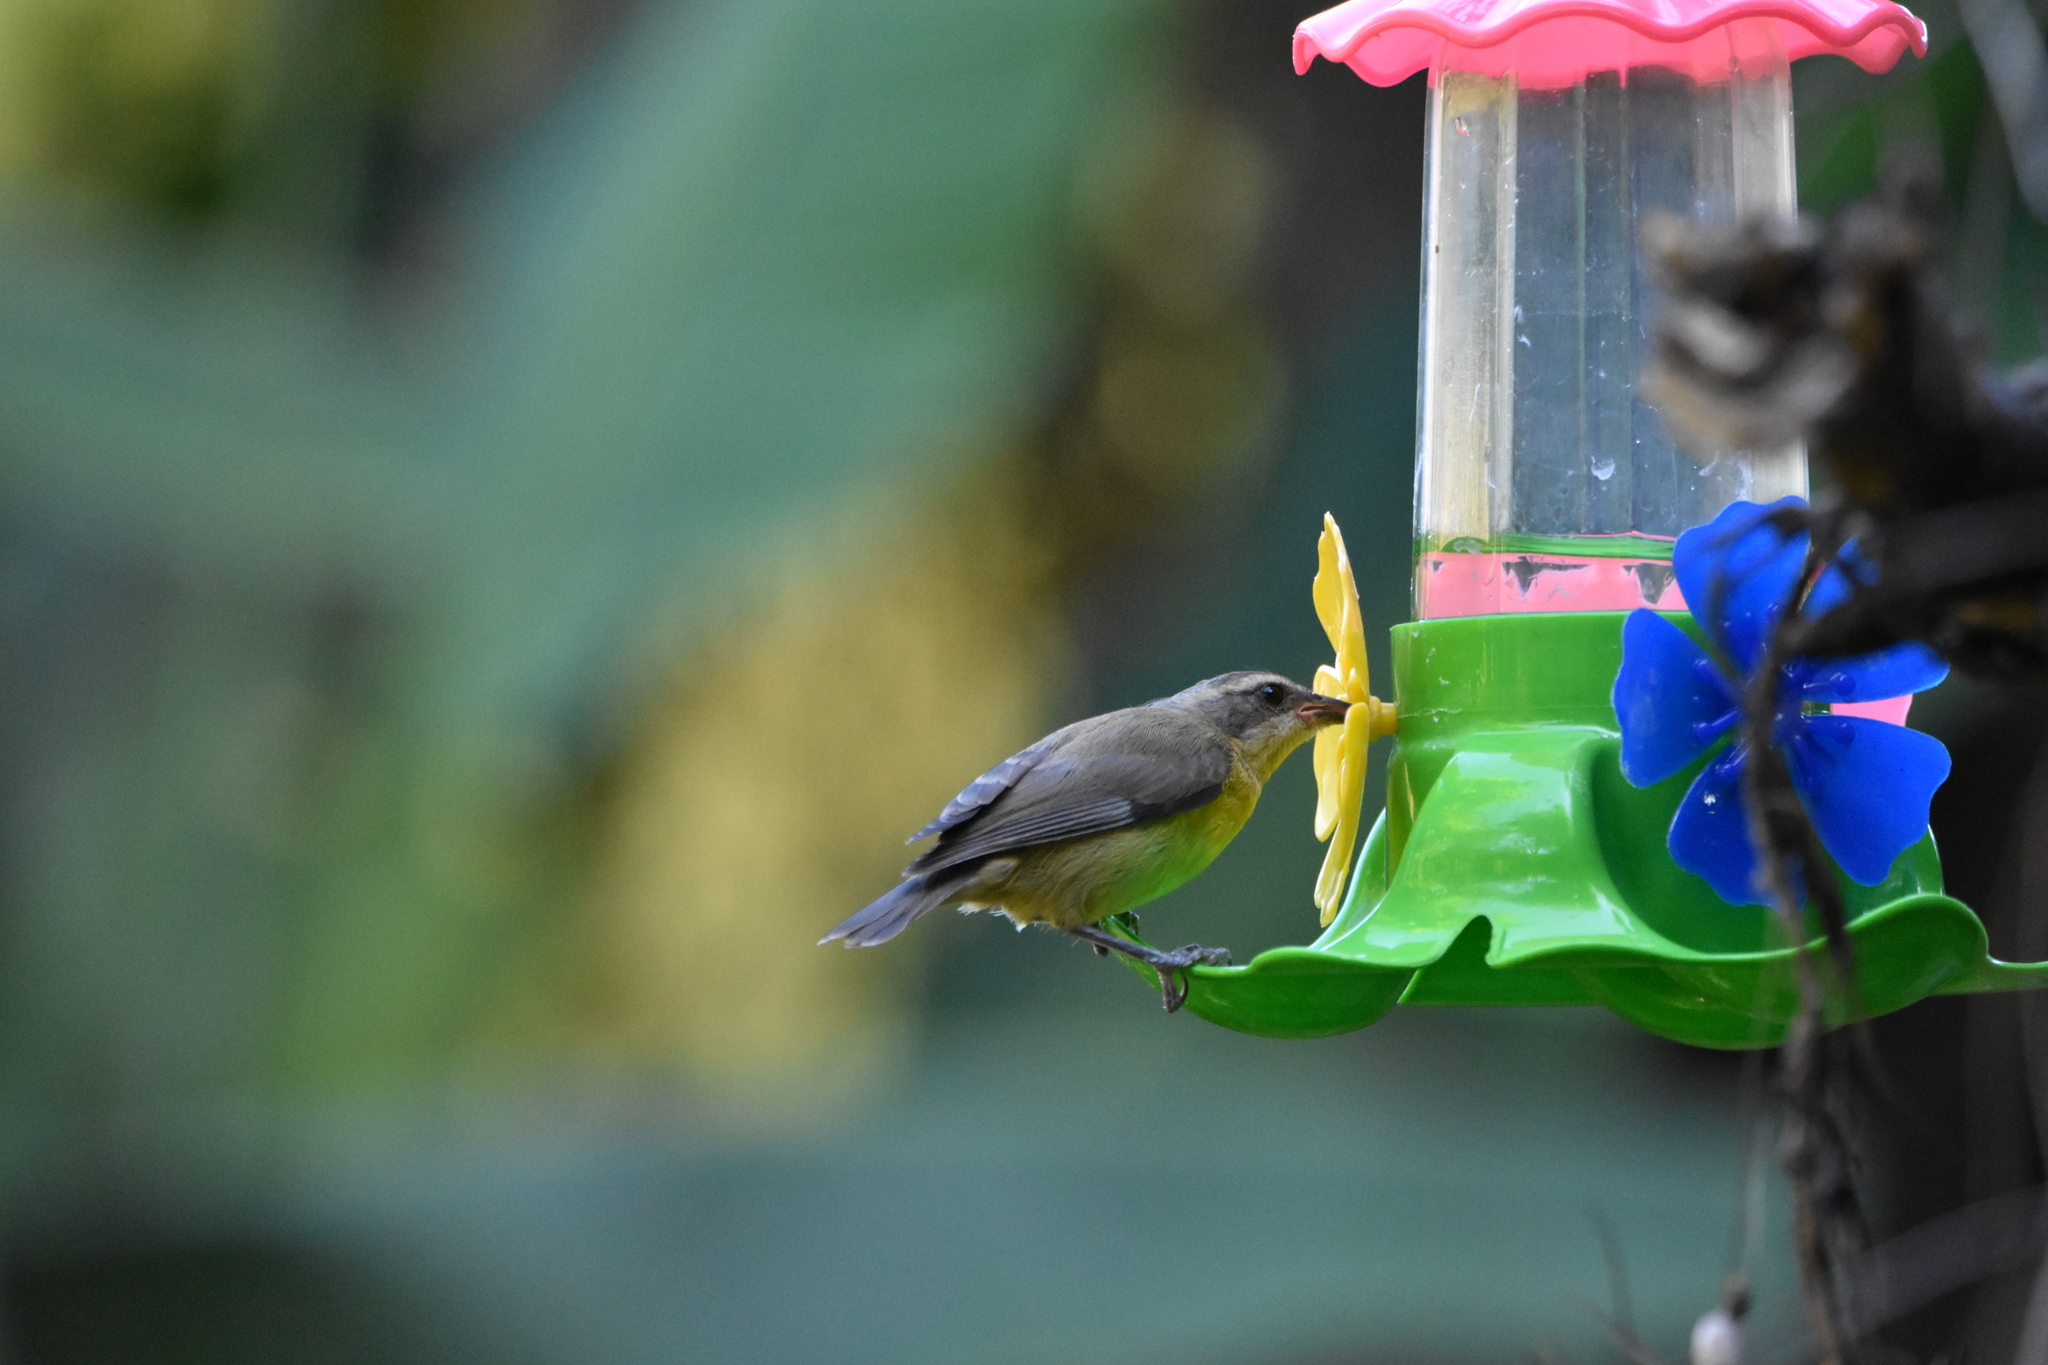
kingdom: Animalia
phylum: Chordata
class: Aves
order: Passeriformes
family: Thraupidae
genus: Coereba
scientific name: Coereba flaveola
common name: Bananaquit
